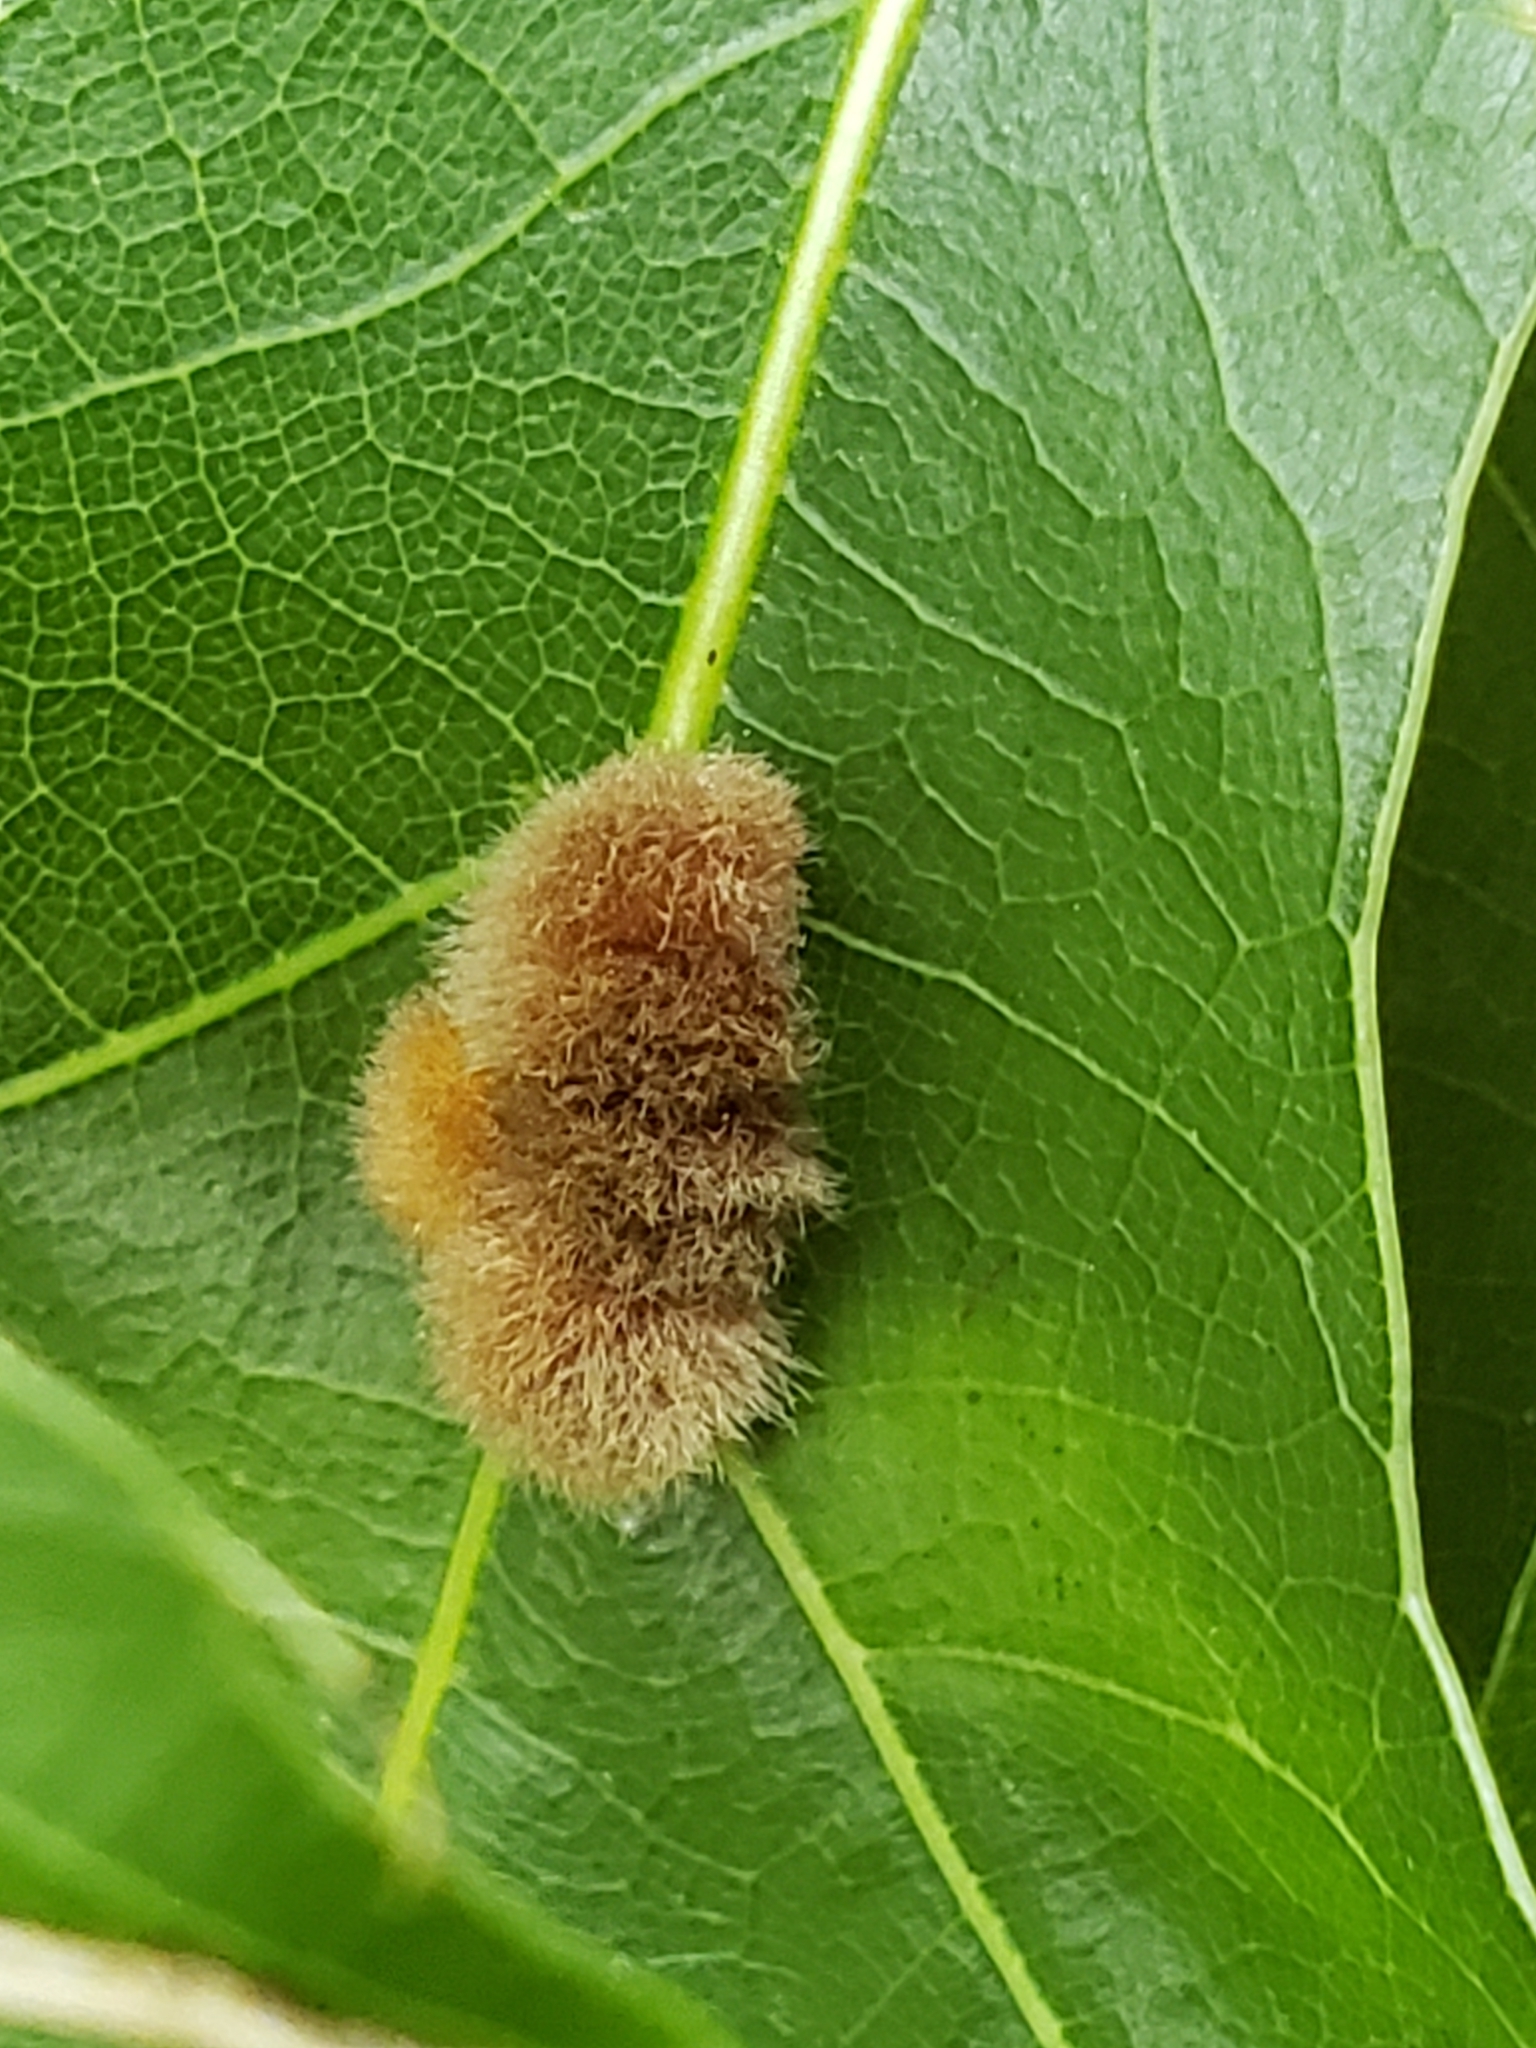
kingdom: Animalia
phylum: Arthropoda
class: Insecta
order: Hymenoptera
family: Cynipidae
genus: Callirhytis
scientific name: Callirhytis
